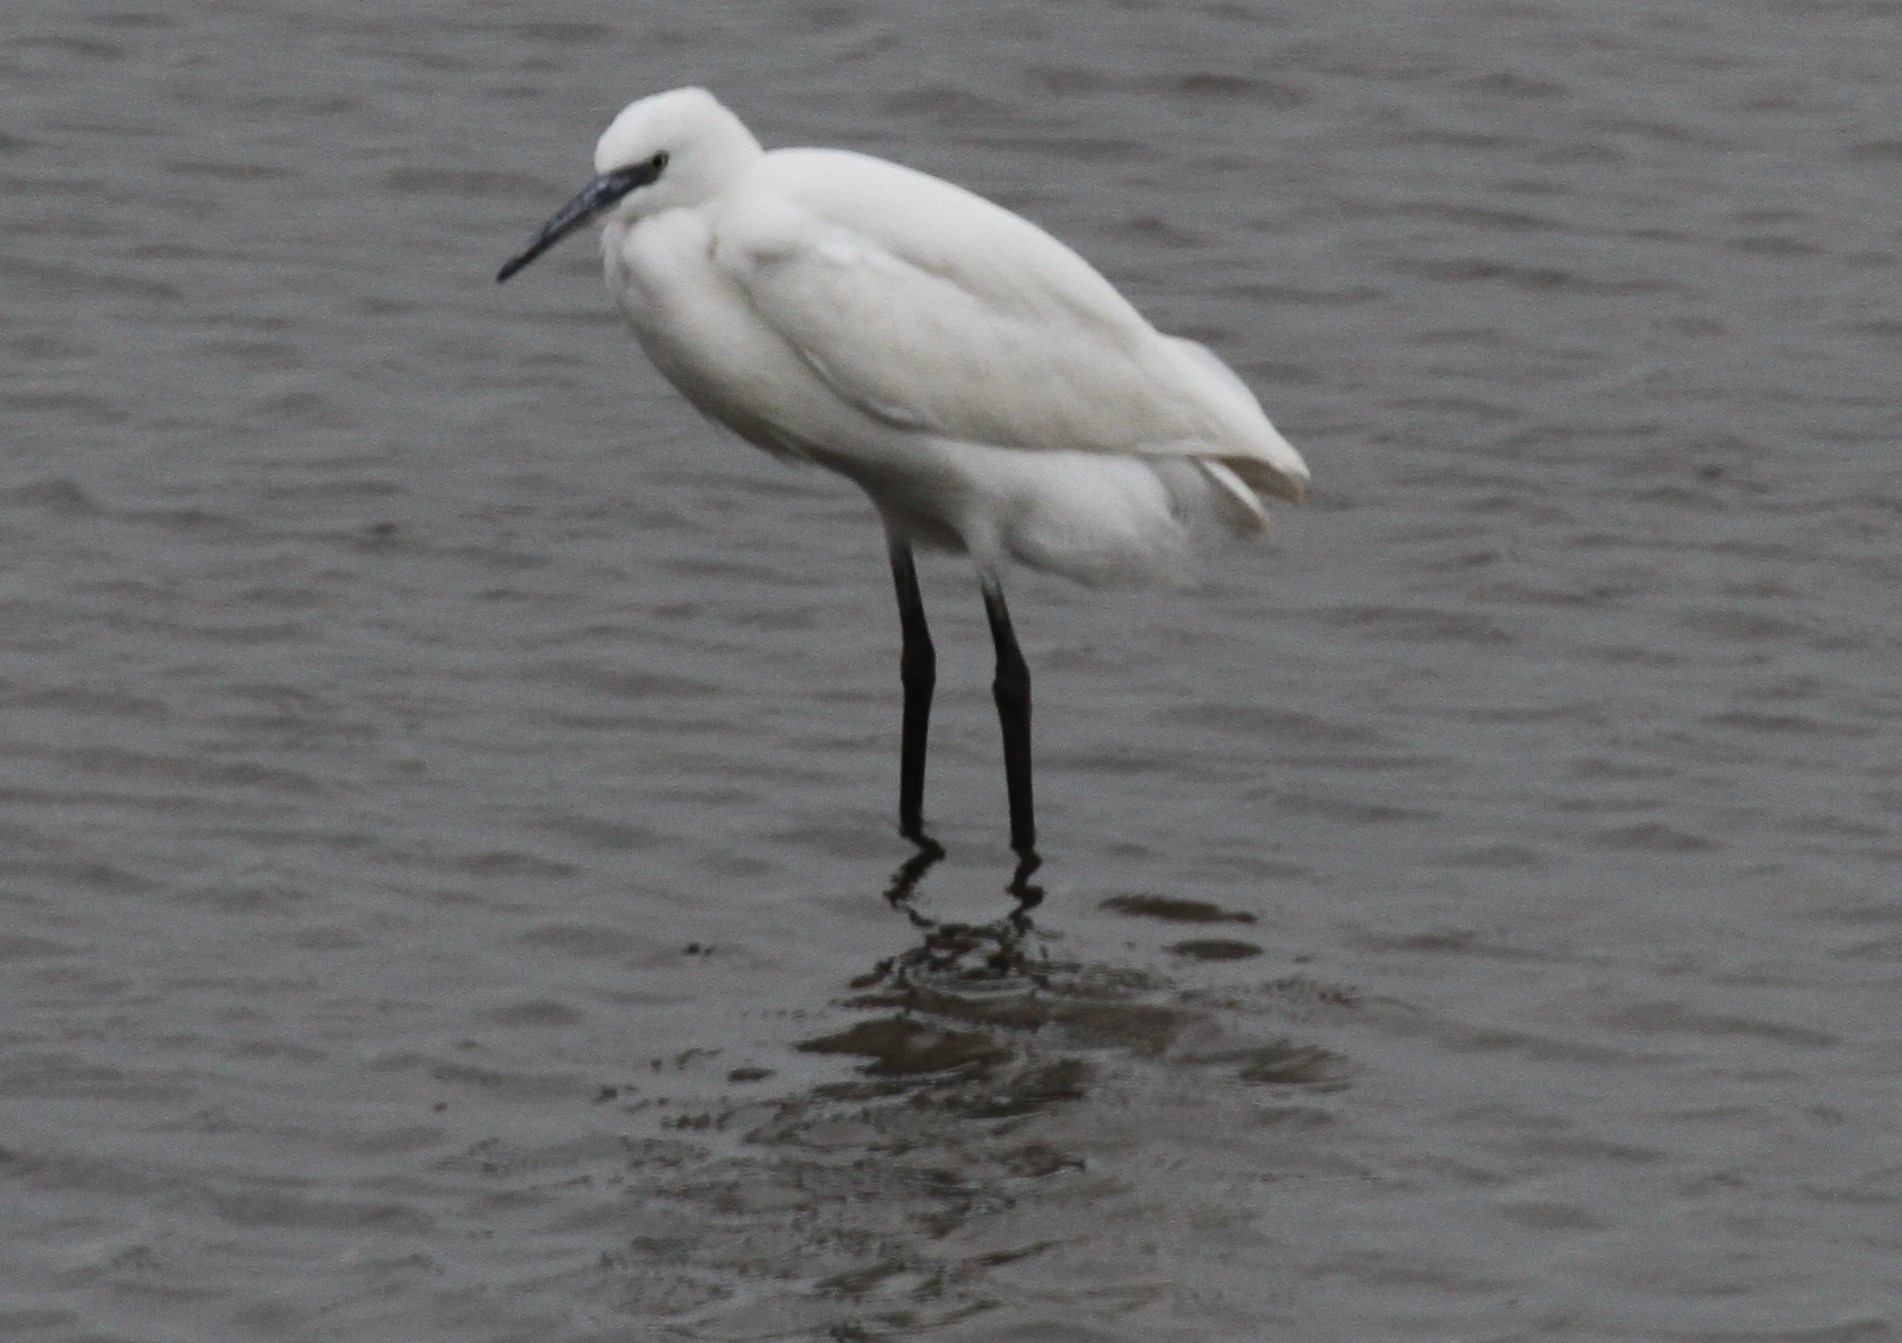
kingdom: Animalia
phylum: Chordata
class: Aves
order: Pelecaniformes
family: Ardeidae
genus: Egretta
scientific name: Egretta garzetta
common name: Little egret
